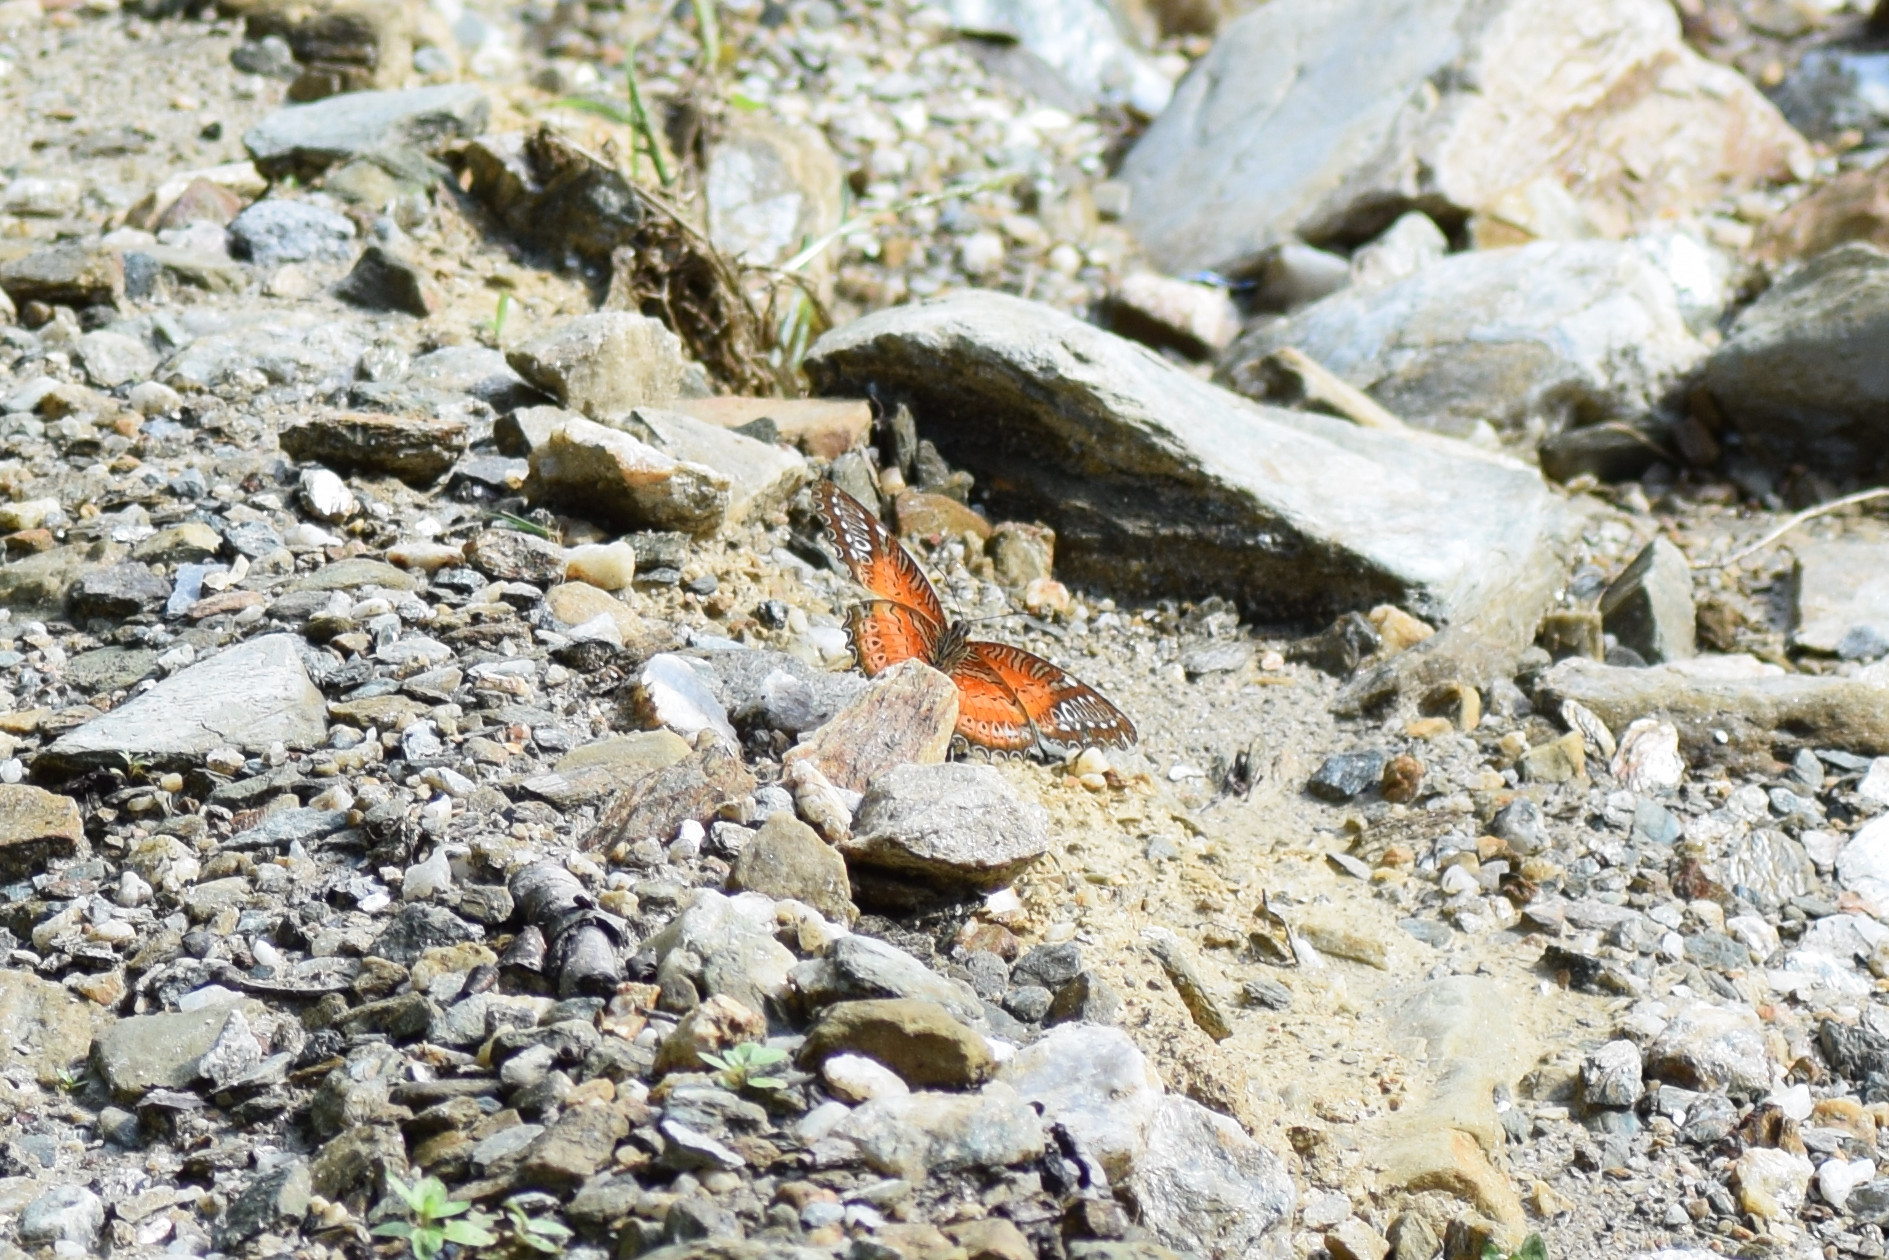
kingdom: Animalia
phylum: Arthropoda
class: Insecta
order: Lepidoptera
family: Nymphalidae
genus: Cethosia
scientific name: Cethosia biblis
